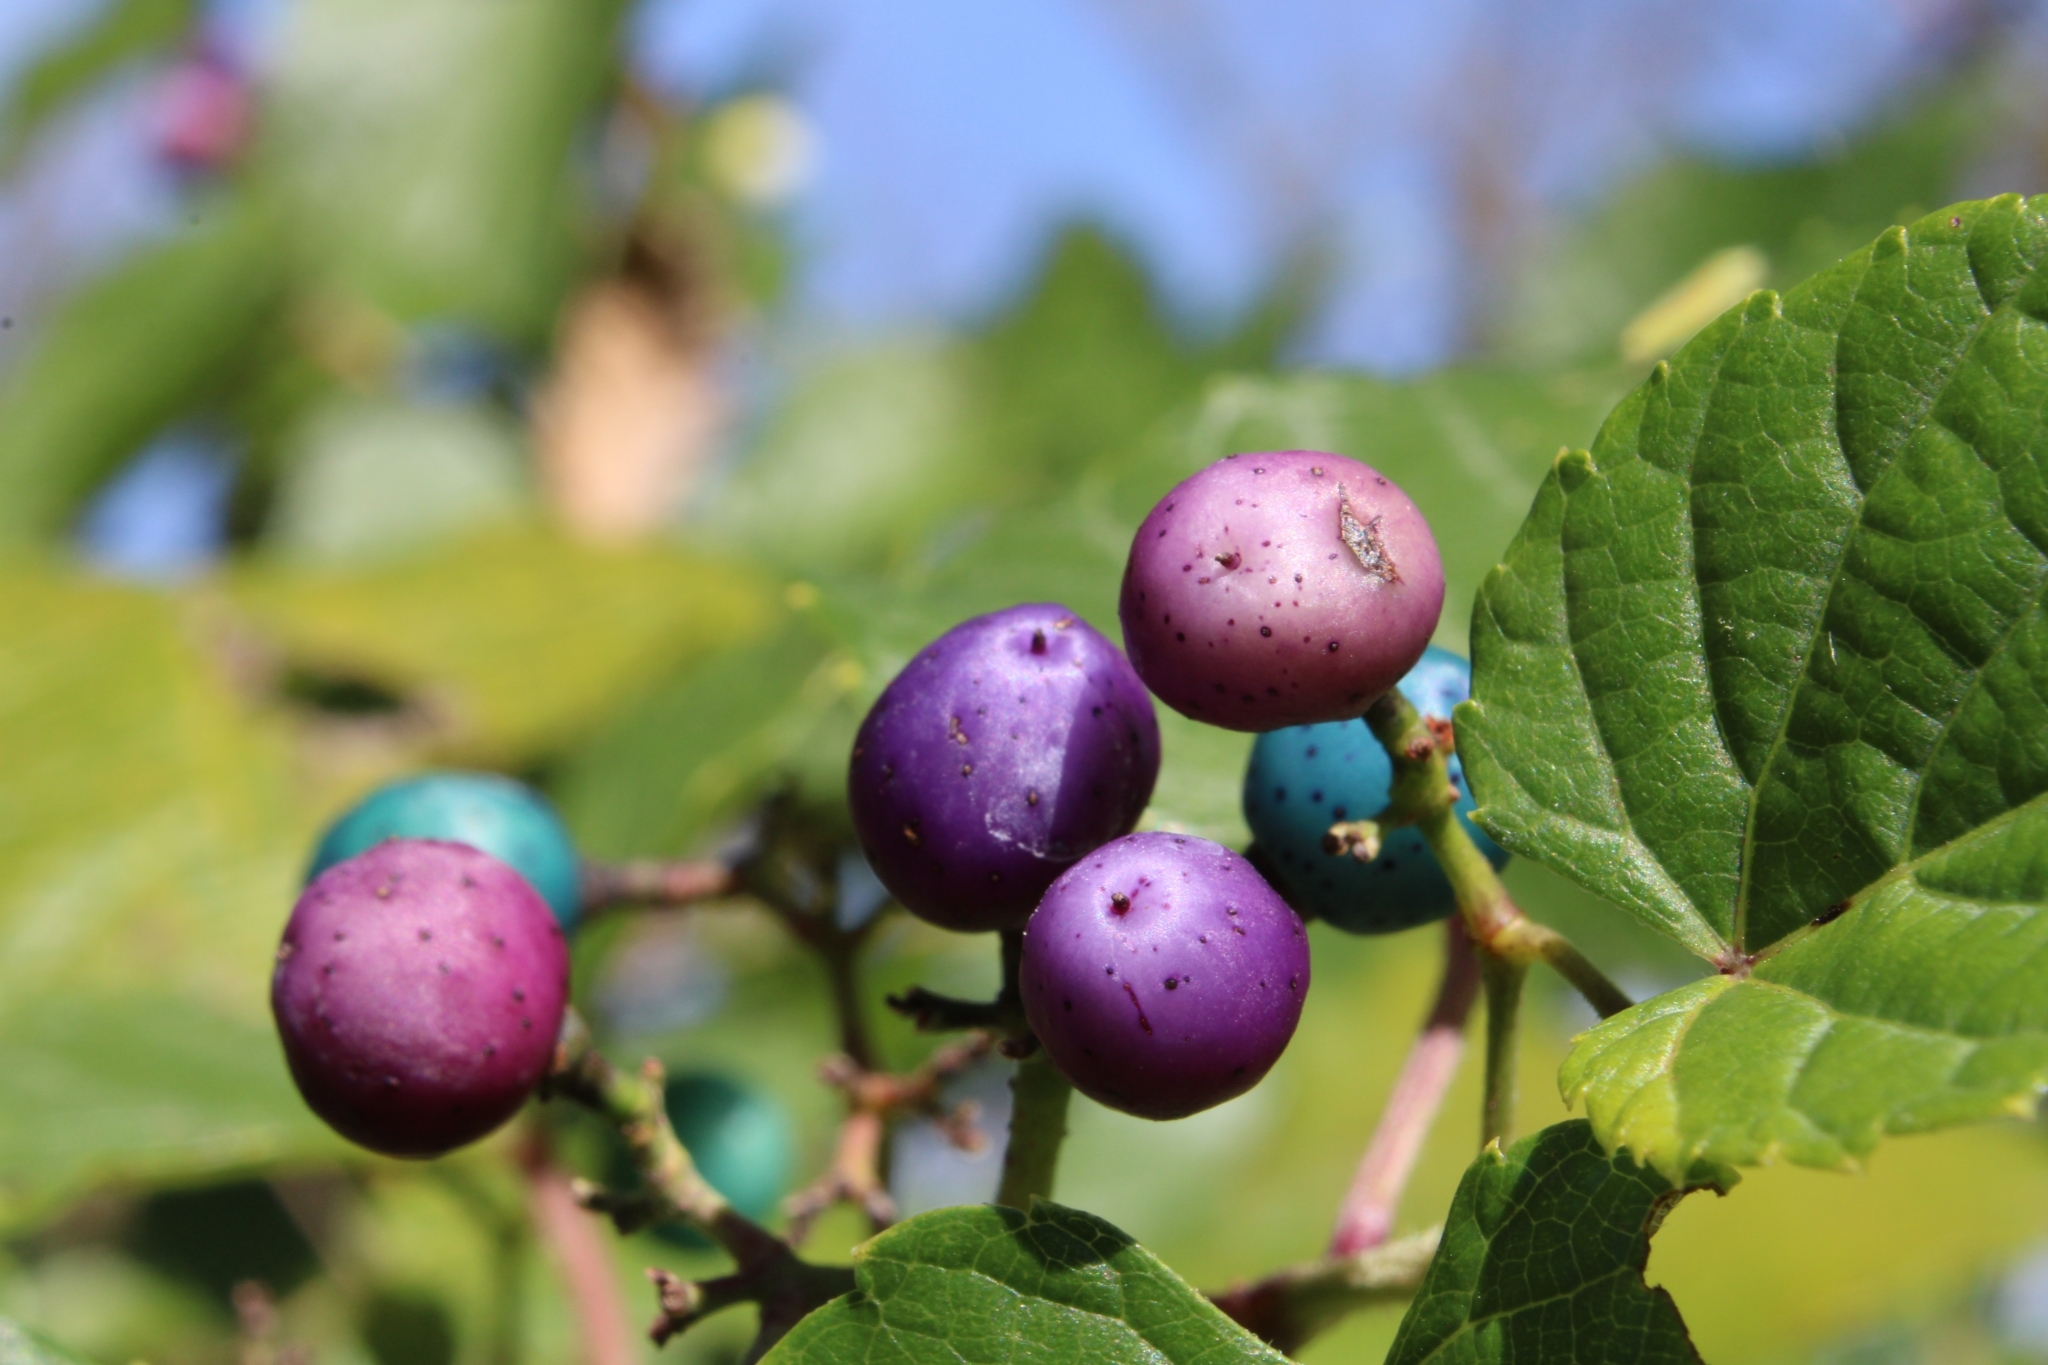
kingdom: Plantae
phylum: Tracheophyta
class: Magnoliopsida
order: Vitales
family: Vitaceae
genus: Ampelopsis
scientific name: Ampelopsis glandulosa
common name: Amur peppervine
